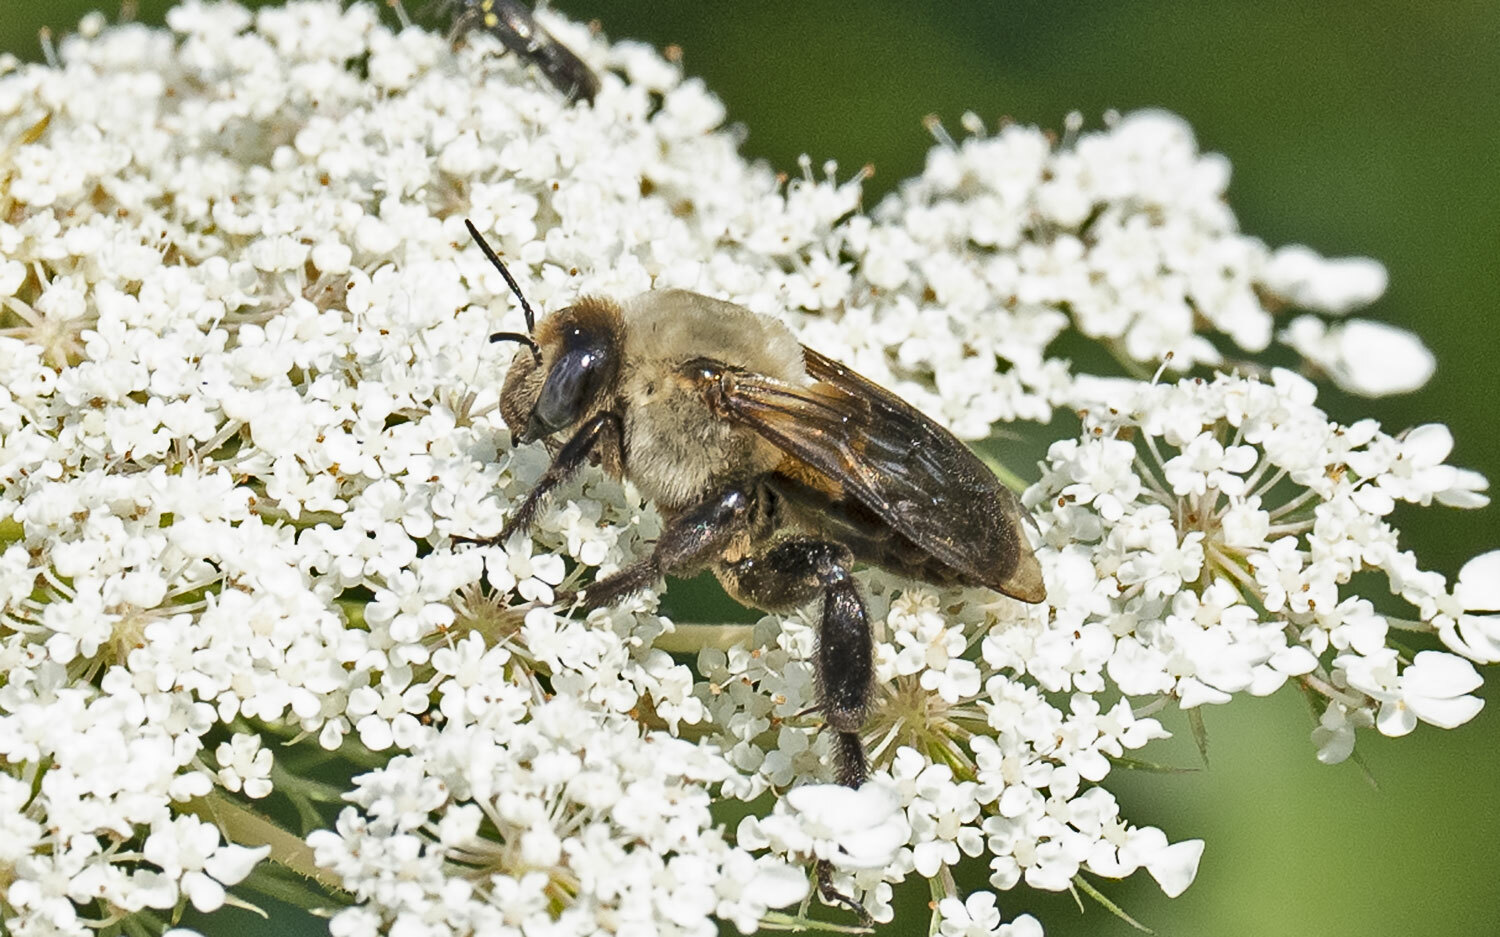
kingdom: Animalia
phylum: Arthropoda
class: Insecta
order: Hymenoptera
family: Apidae
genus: Ptilothrix
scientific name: Ptilothrix bombiformis
